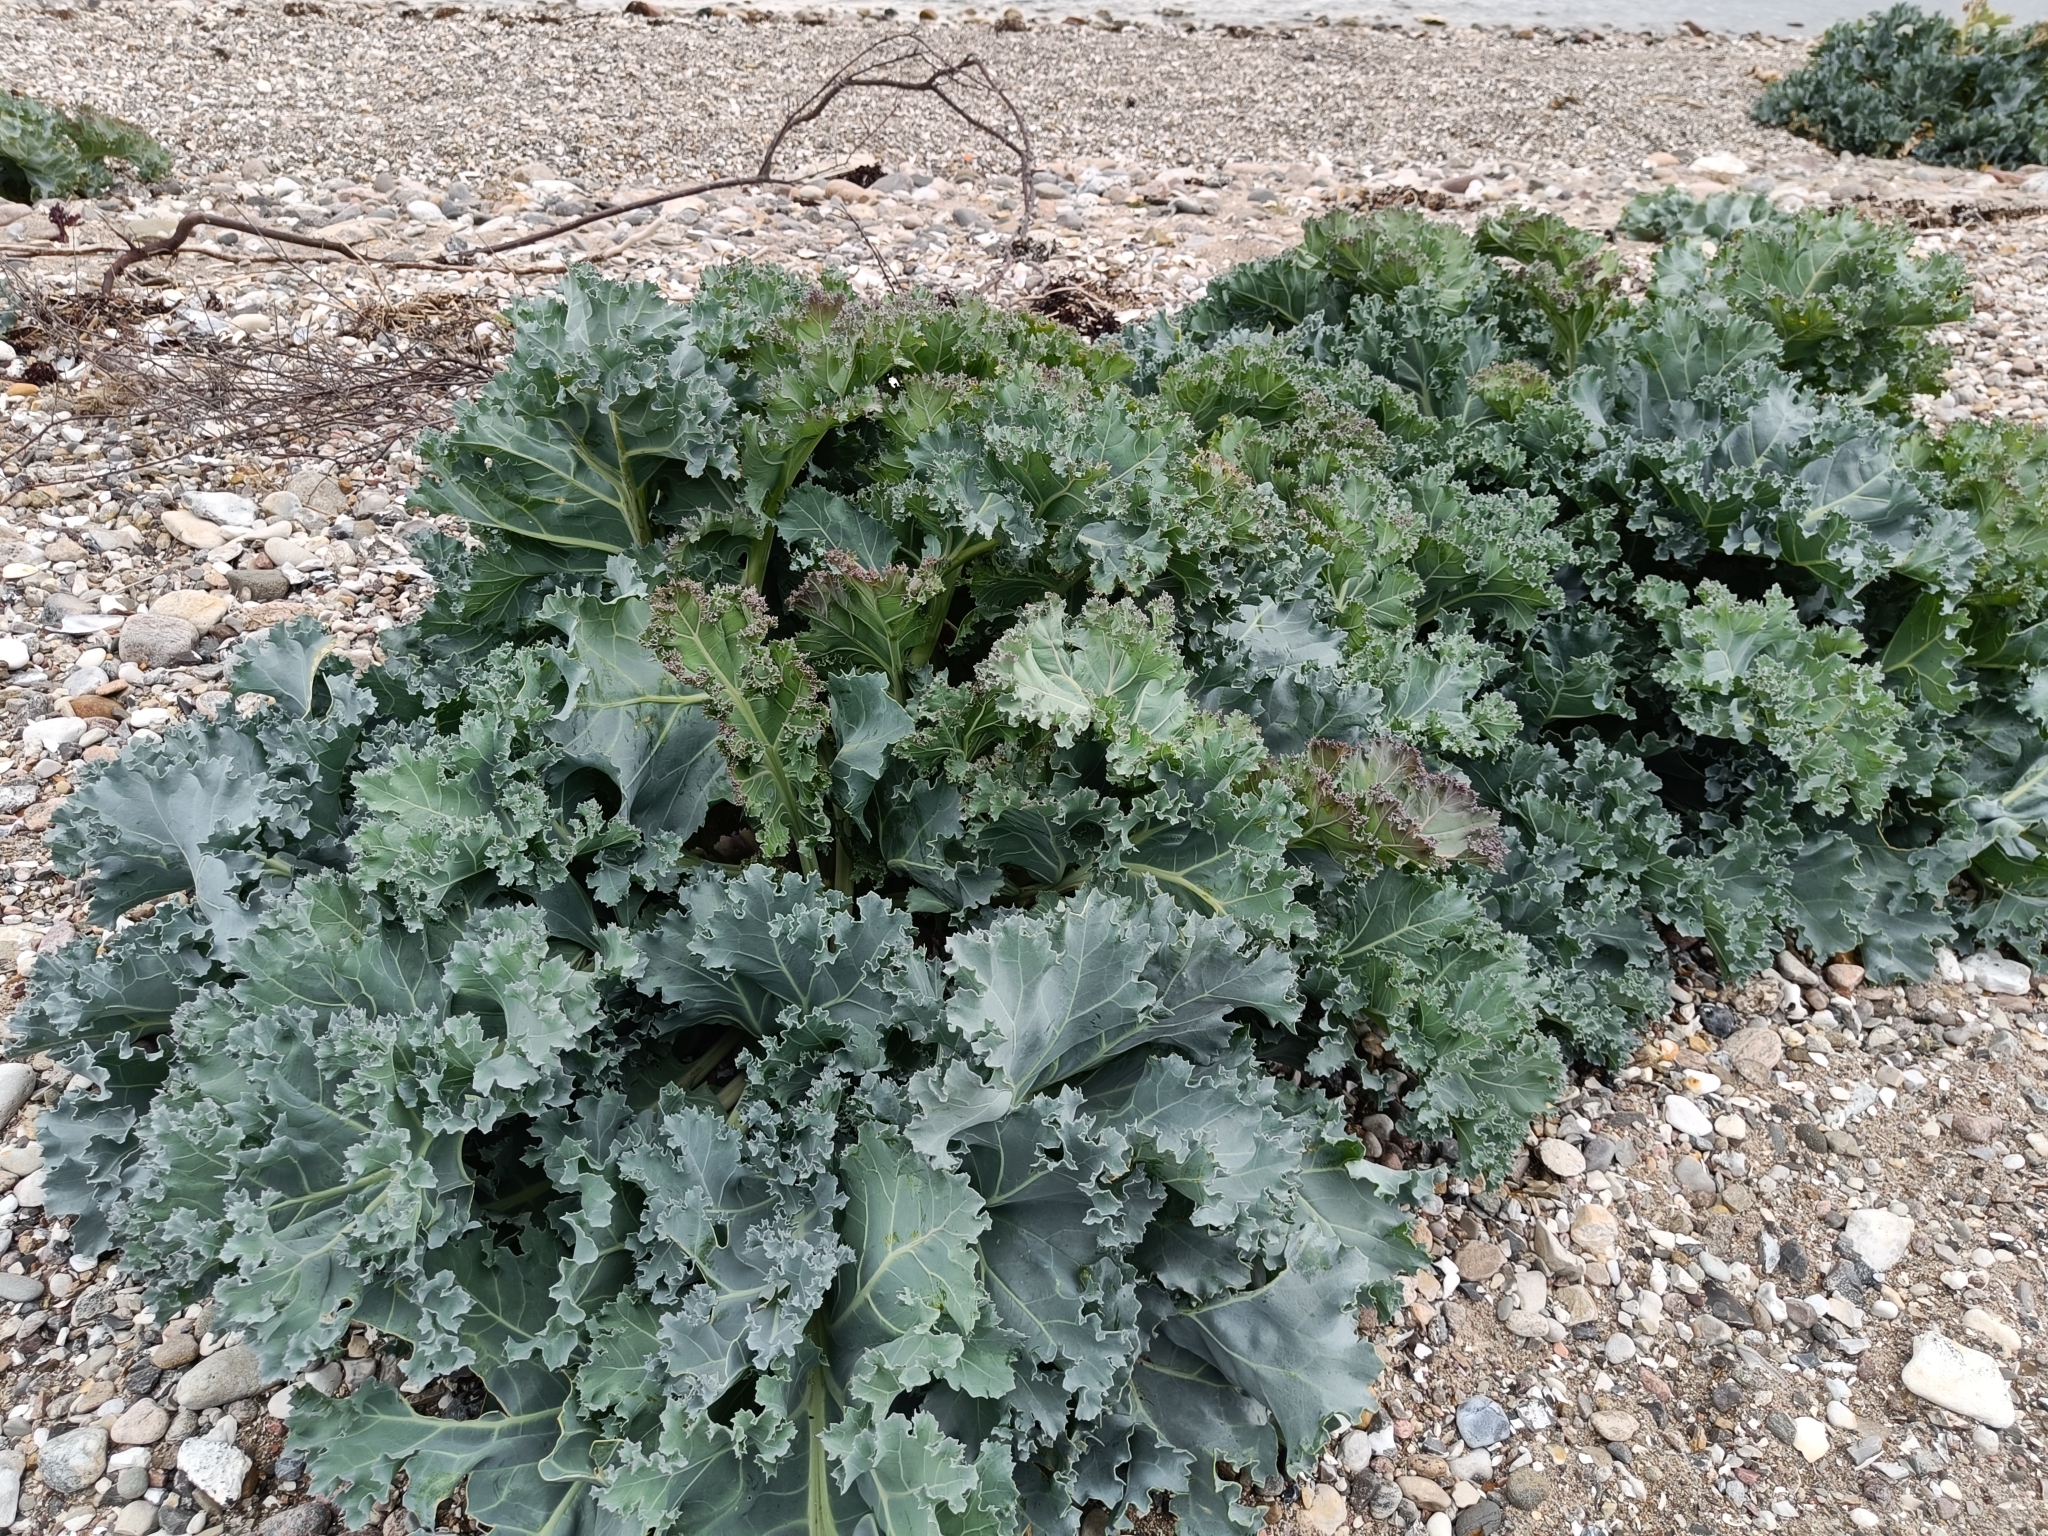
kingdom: Plantae
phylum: Tracheophyta
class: Magnoliopsida
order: Brassicales
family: Brassicaceae
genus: Crambe
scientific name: Crambe maritima
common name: Sea-kale
